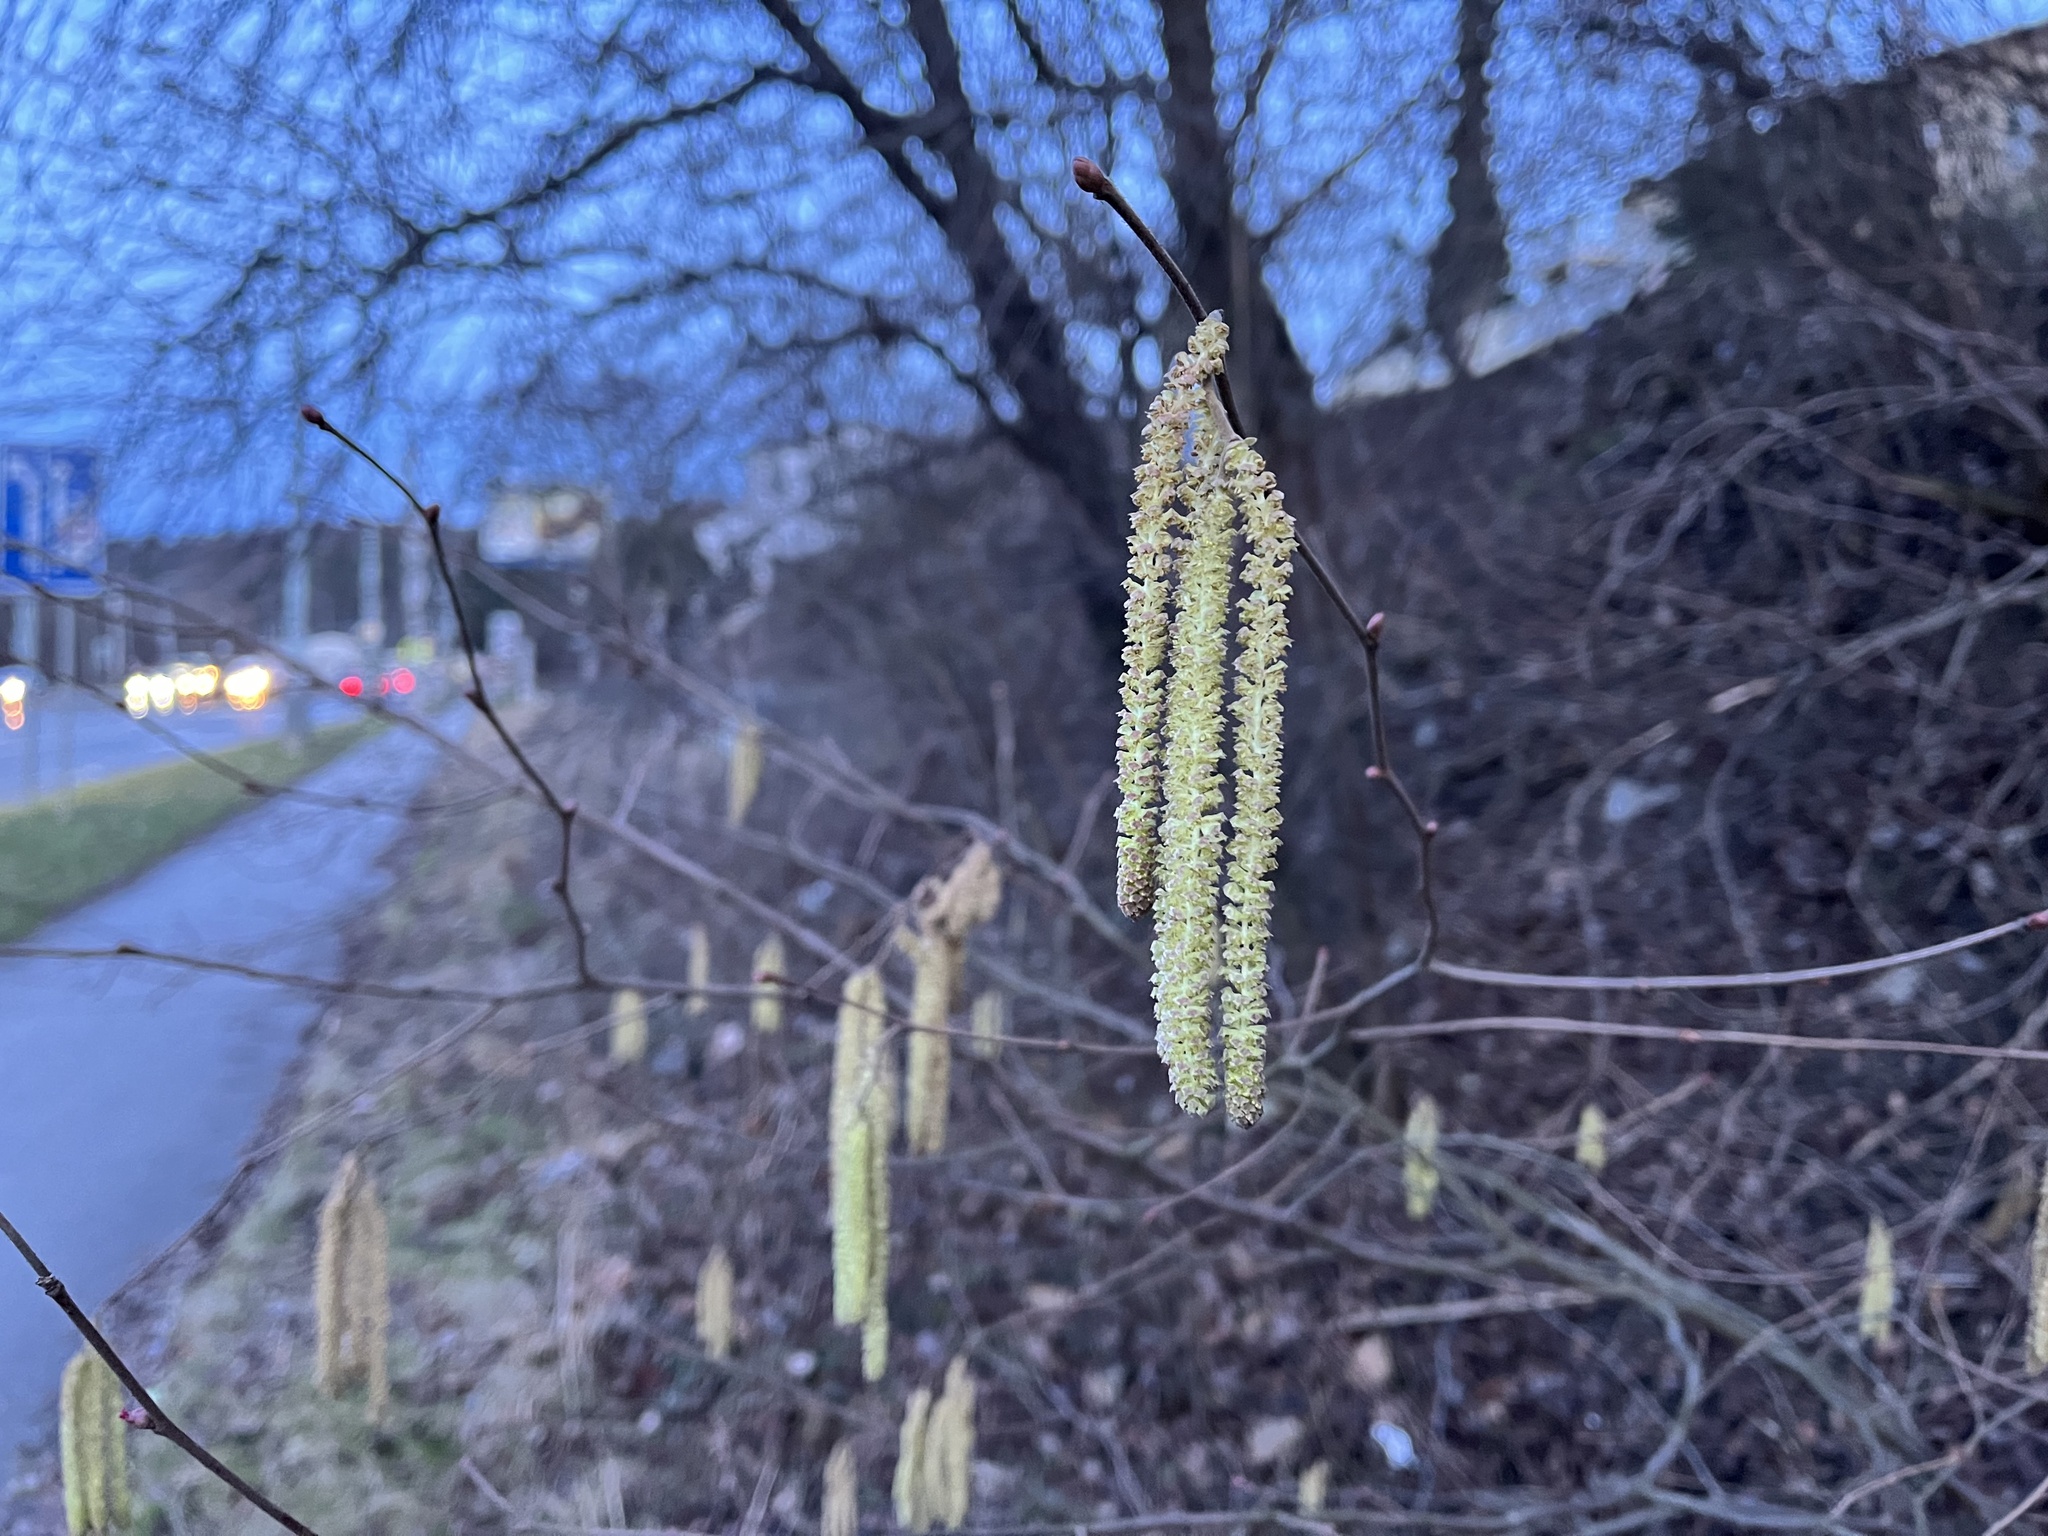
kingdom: Plantae
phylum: Tracheophyta
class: Magnoliopsida
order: Fagales
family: Betulaceae
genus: Corylus
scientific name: Corylus avellana
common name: European hazel
